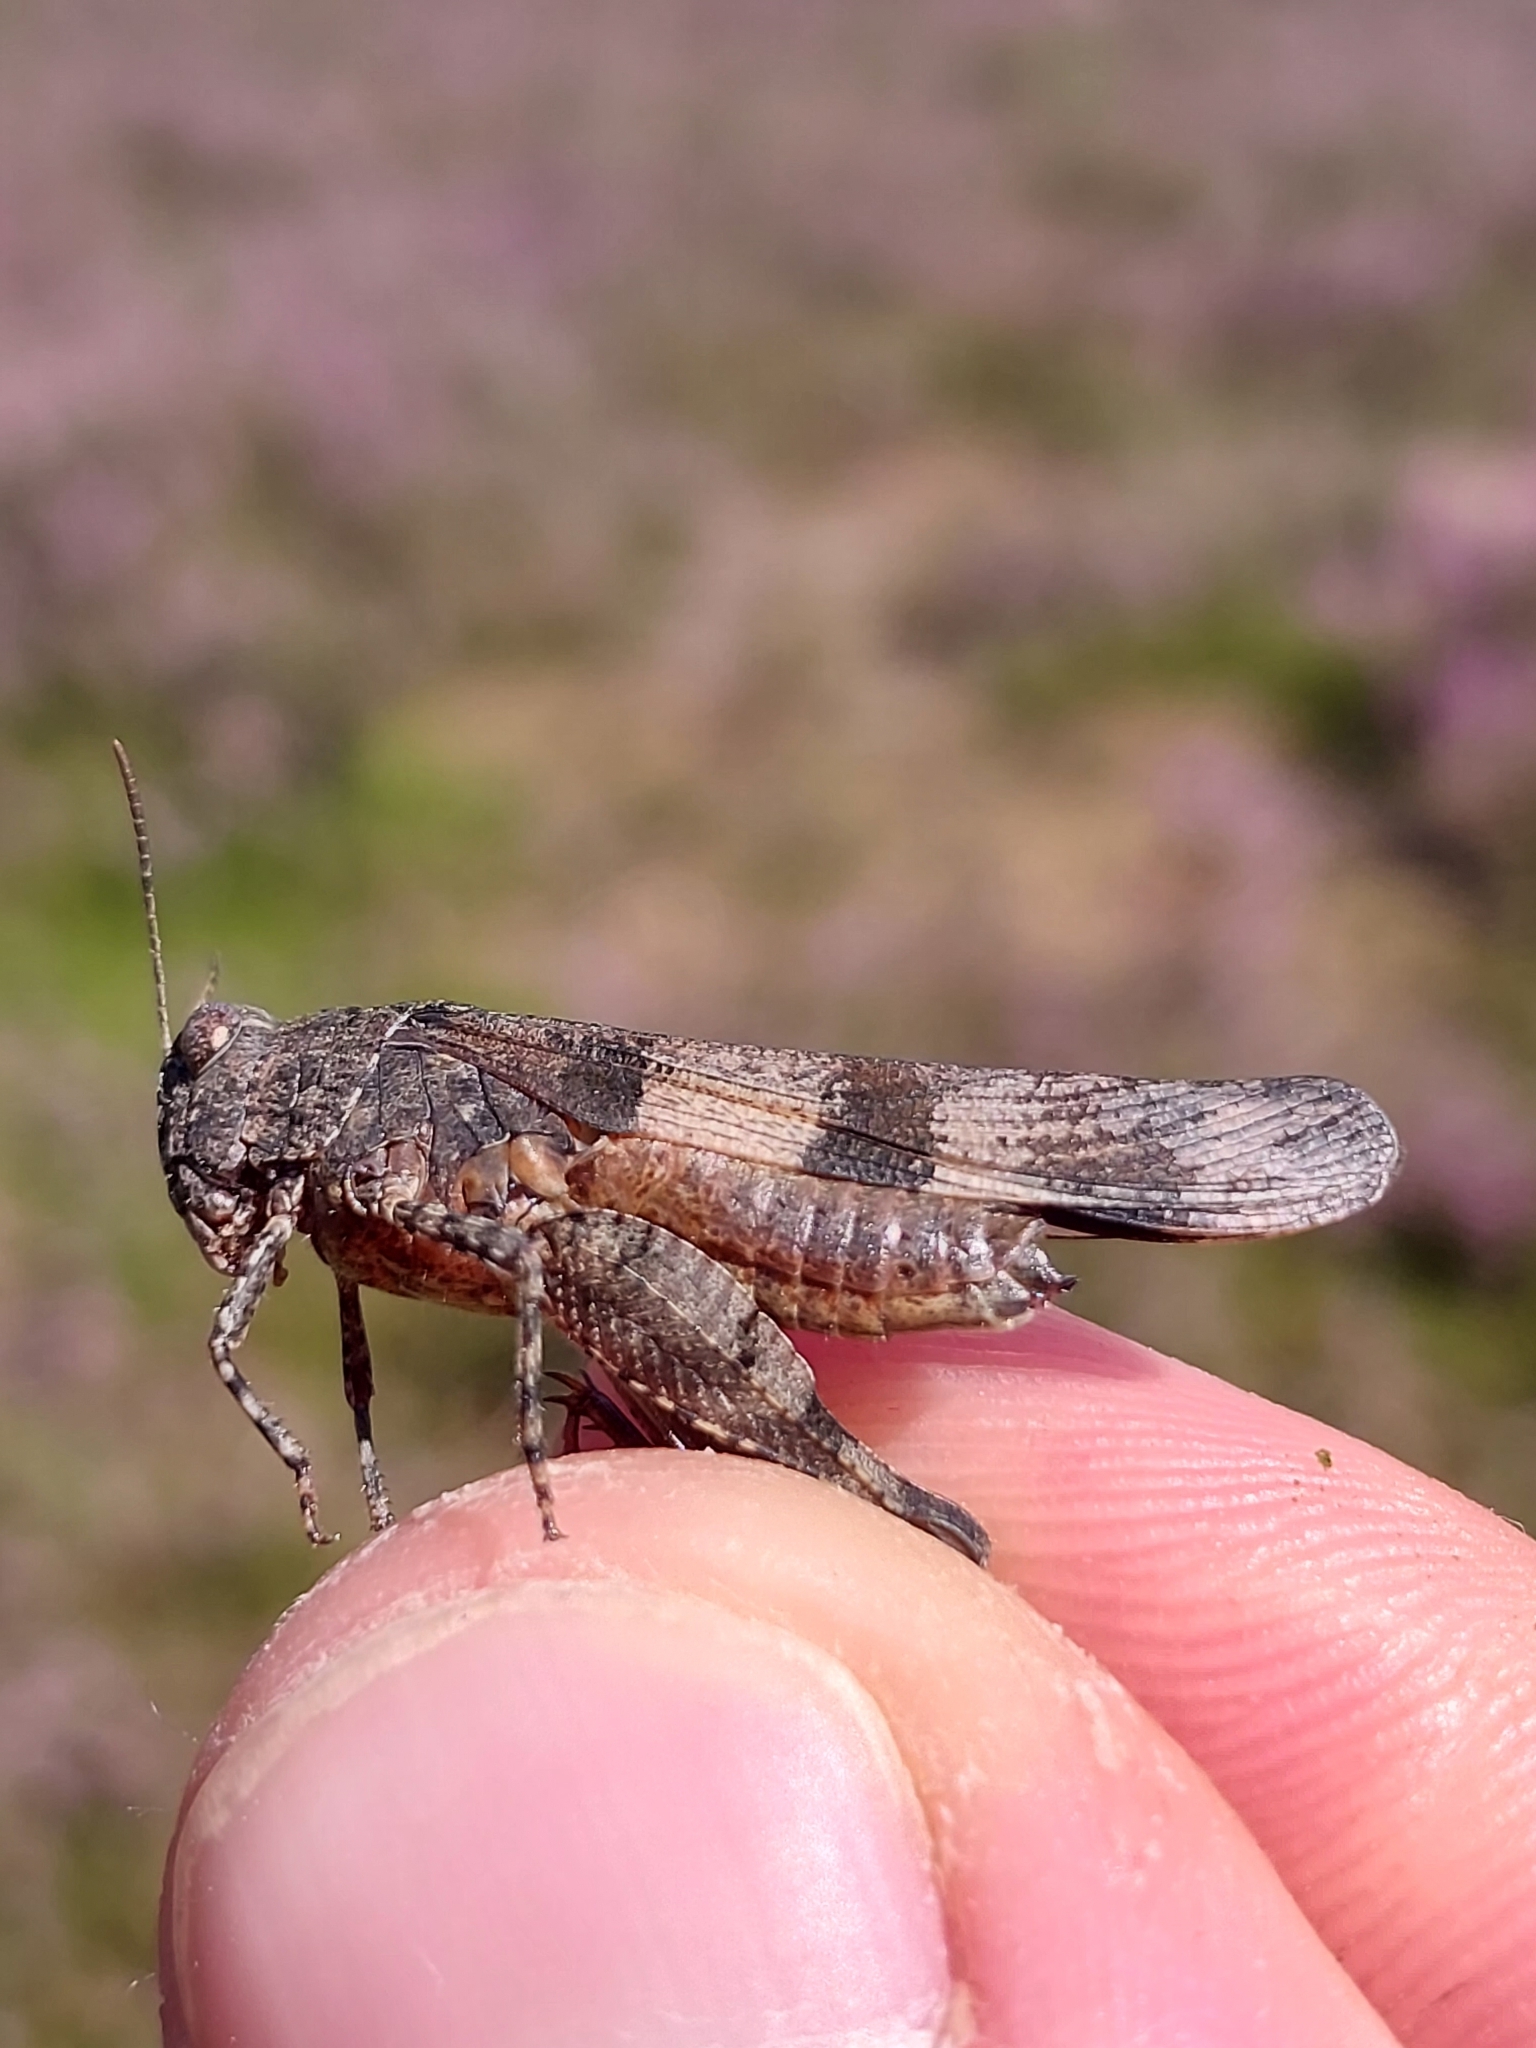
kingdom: Animalia
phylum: Arthropoda
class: Insecta
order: Orthoptera
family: Acrididae
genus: Oedipoda
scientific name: Oedipoda caerulescens
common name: Blue-winged grasshopper
